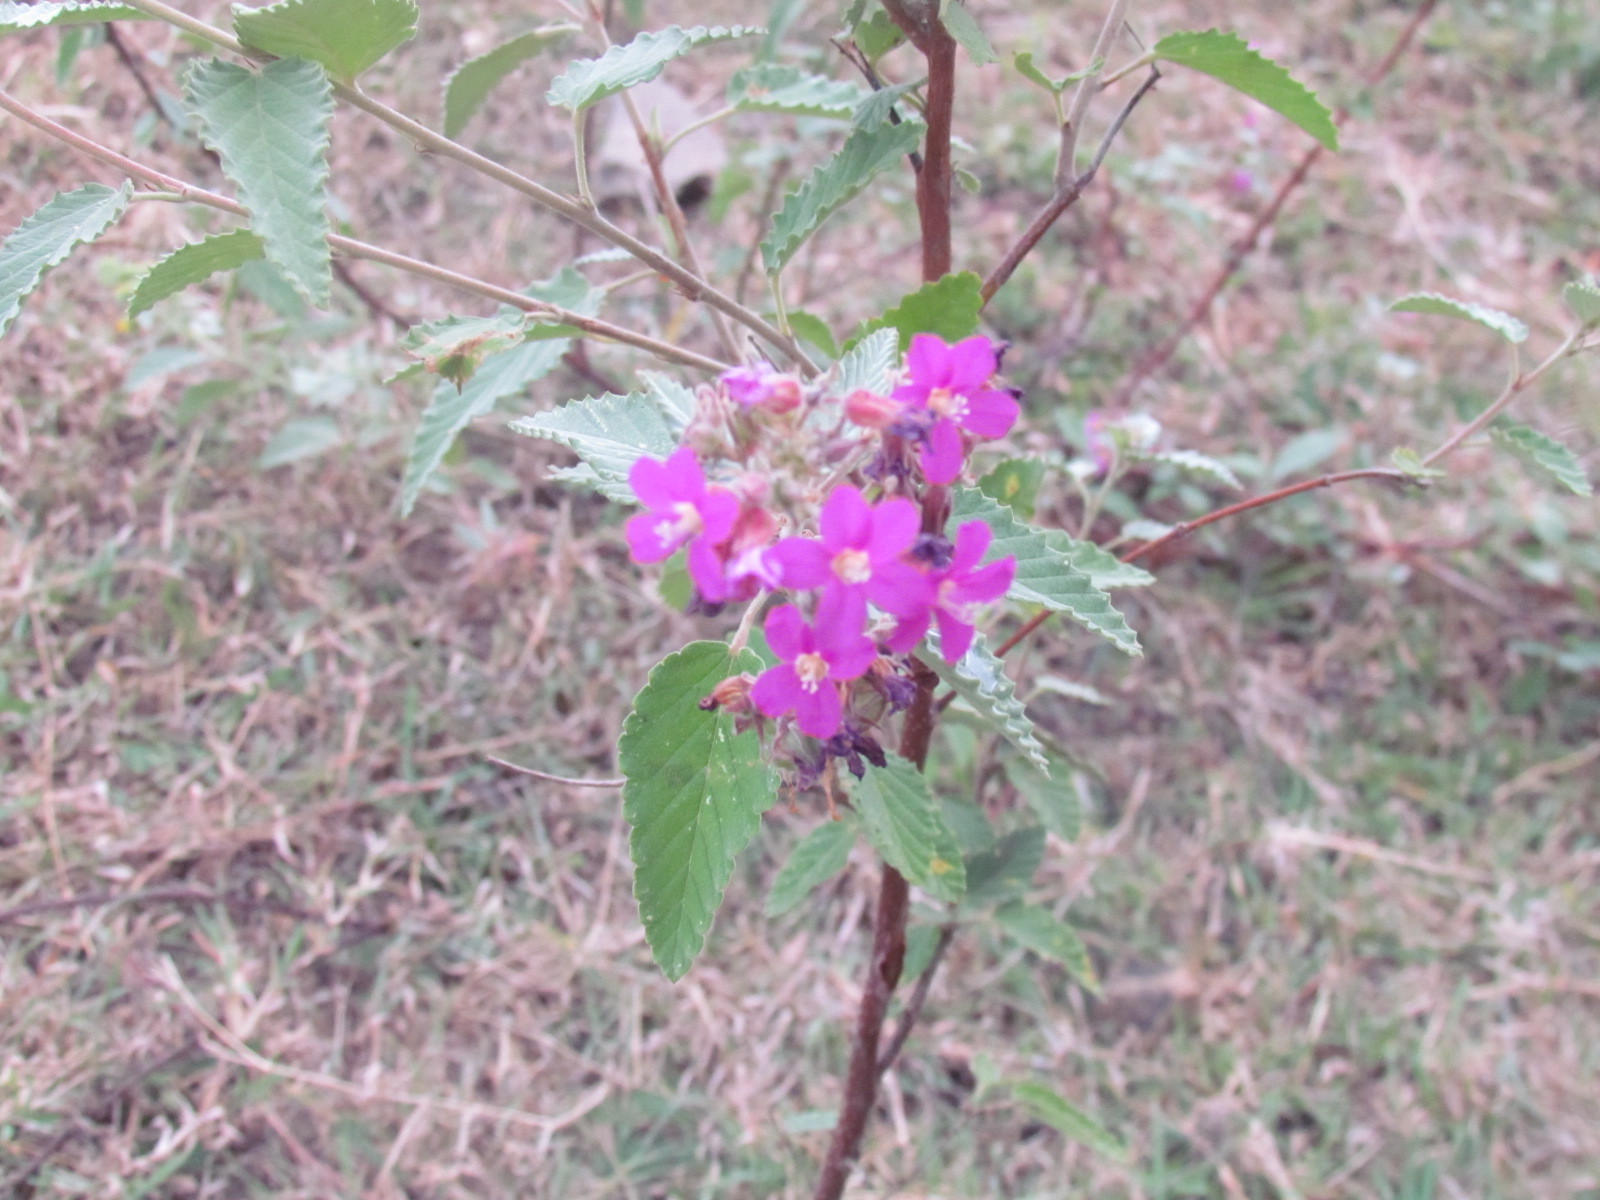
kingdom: Plantae
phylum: Tracheophyta
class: Magnoliopsida
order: Malvales
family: Malvaceae
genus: Melochia
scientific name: Melochia tomentosa
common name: Black torch
